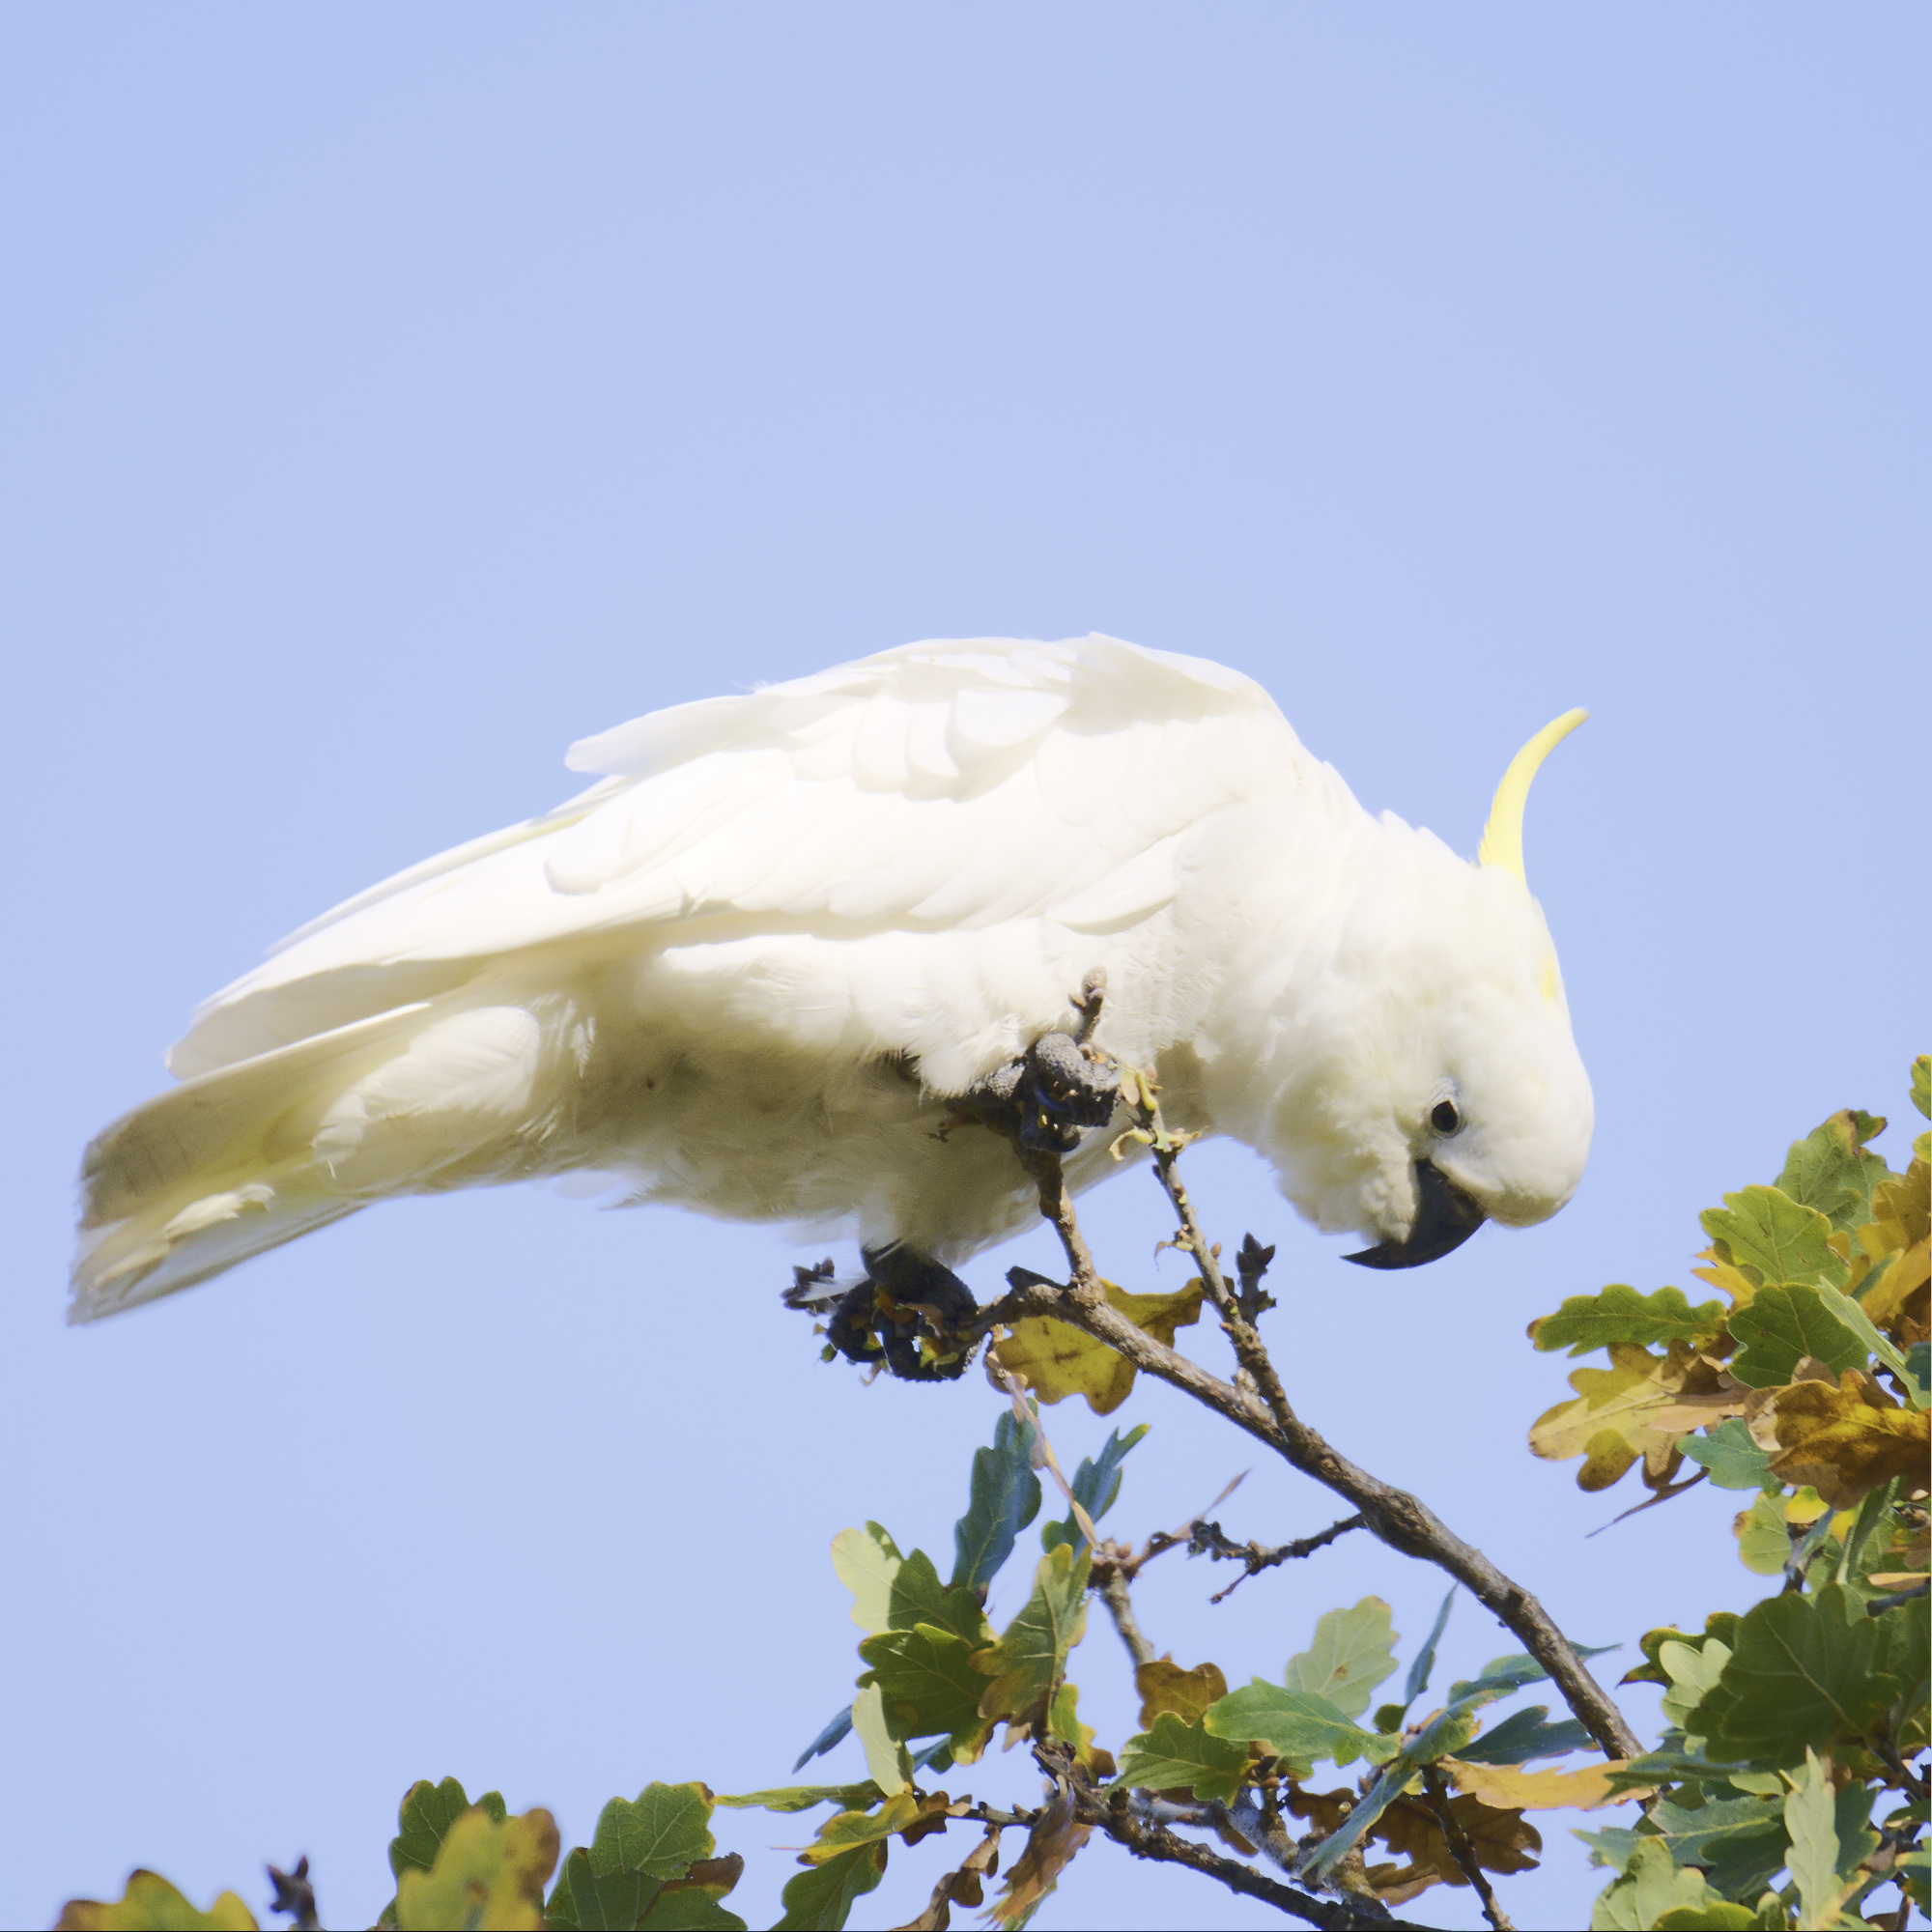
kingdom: Animalia
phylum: Chordata
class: Aves
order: Psittaciformes
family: Psittacidae
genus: Cacatua
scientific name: Cacatua galerita
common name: Sulphur-crested cockatoo
